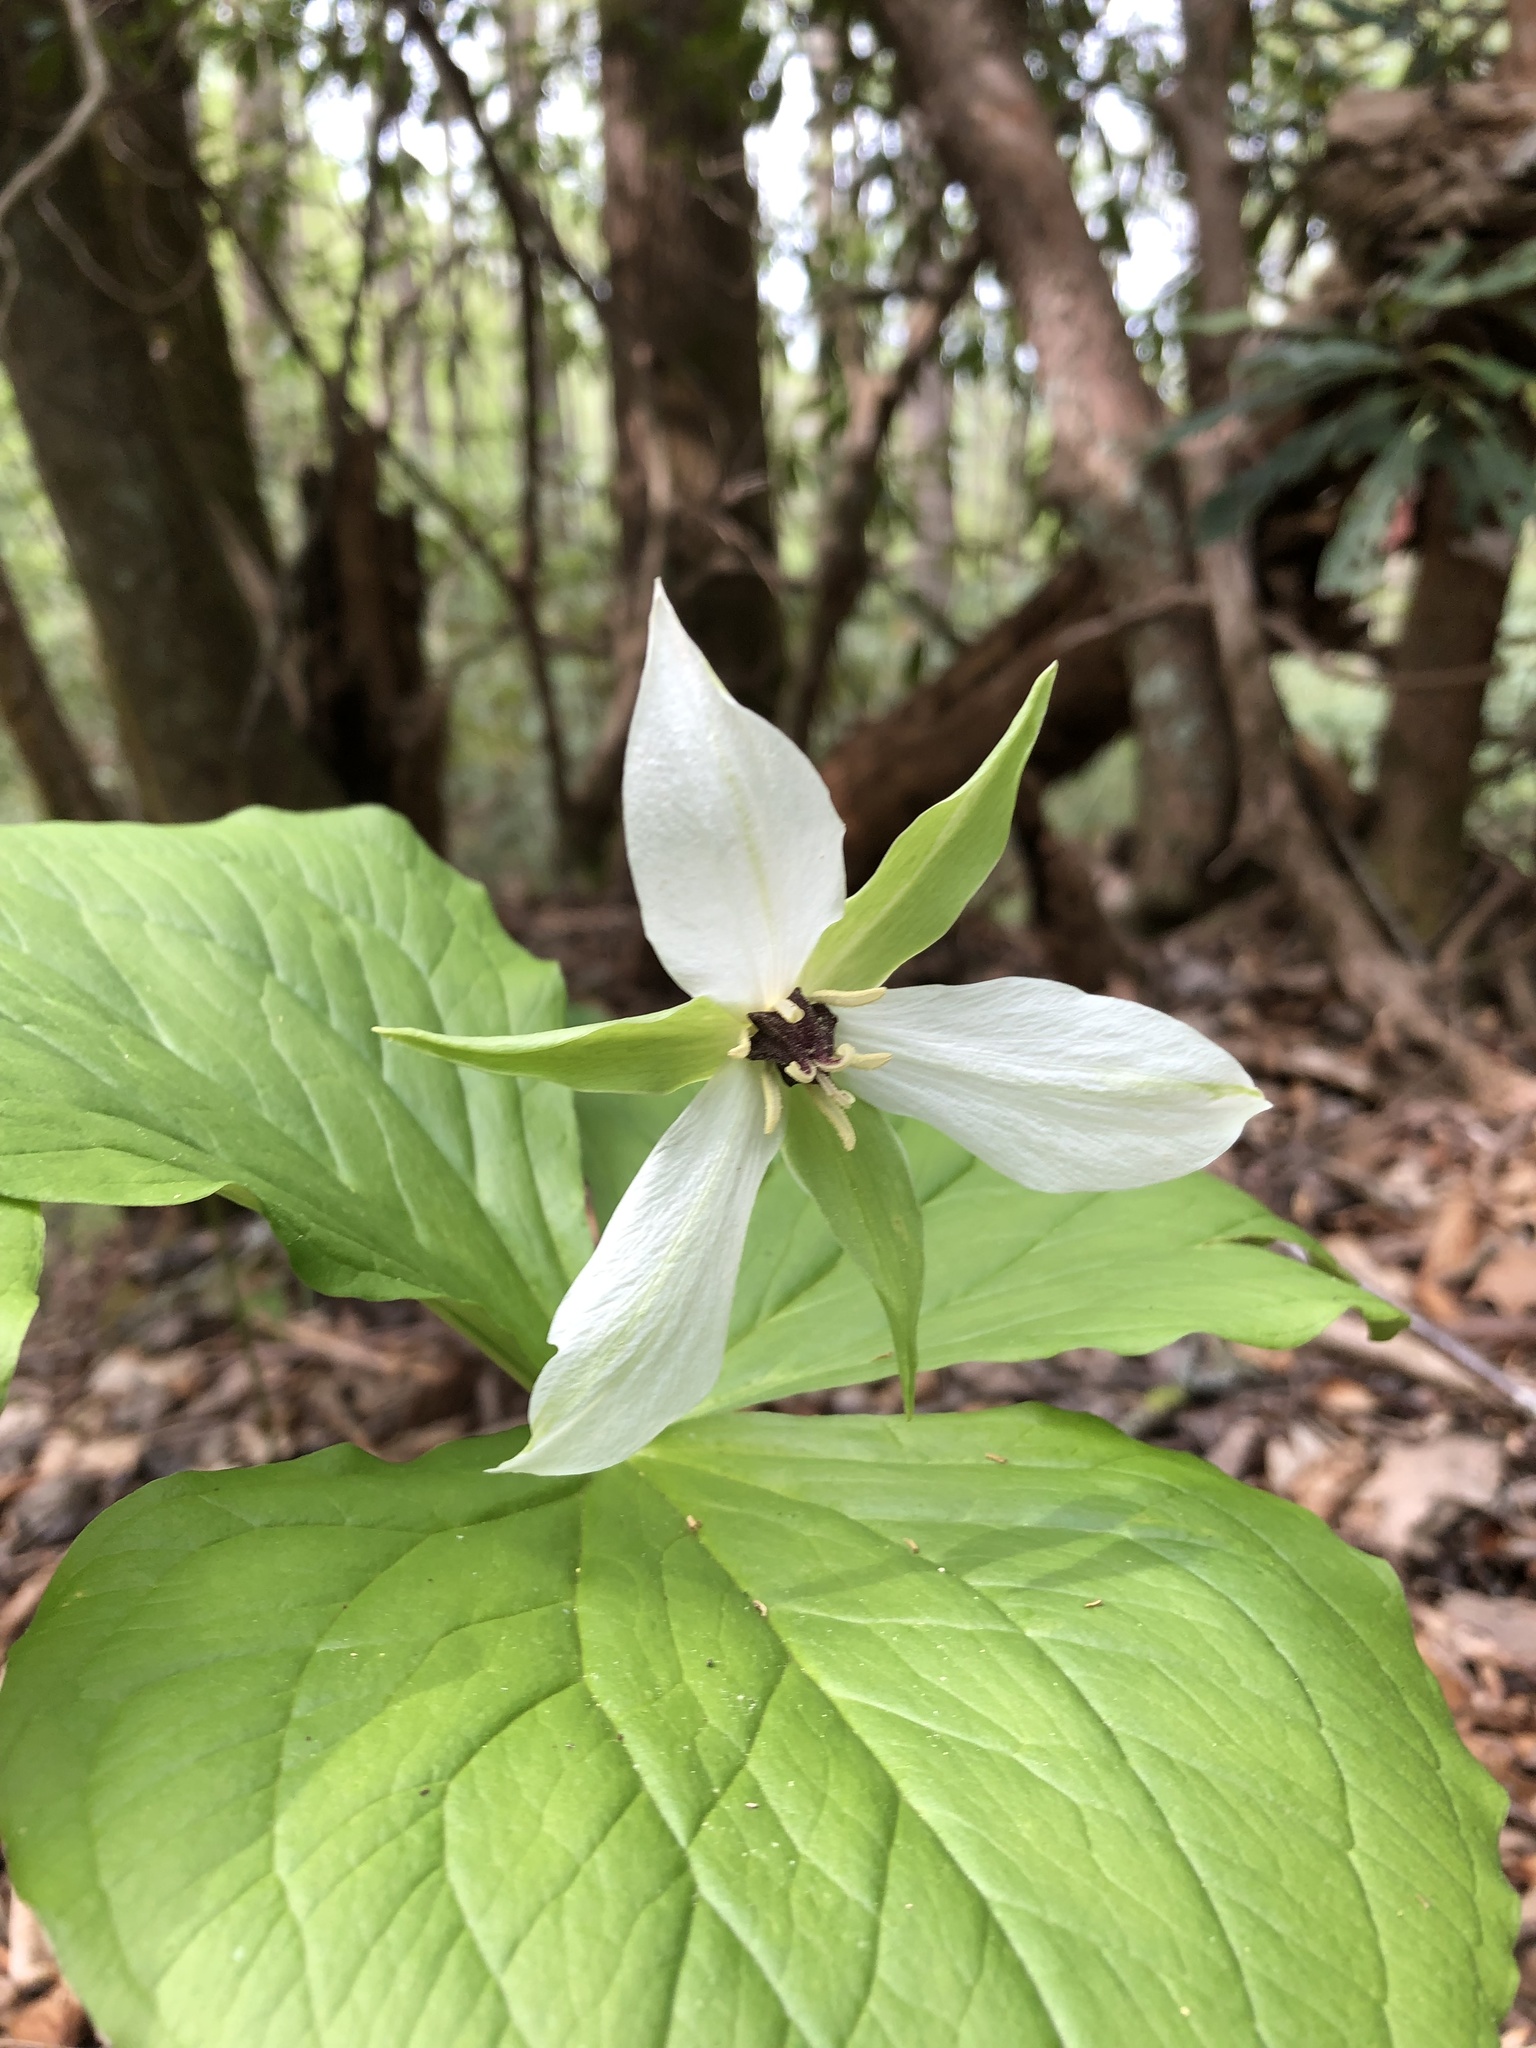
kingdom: Plantae
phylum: Tracheophyta
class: Liliopsida
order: Liliales
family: Melanthiaceae
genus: Trillium
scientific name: Trillium erectum
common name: Purple trillium
